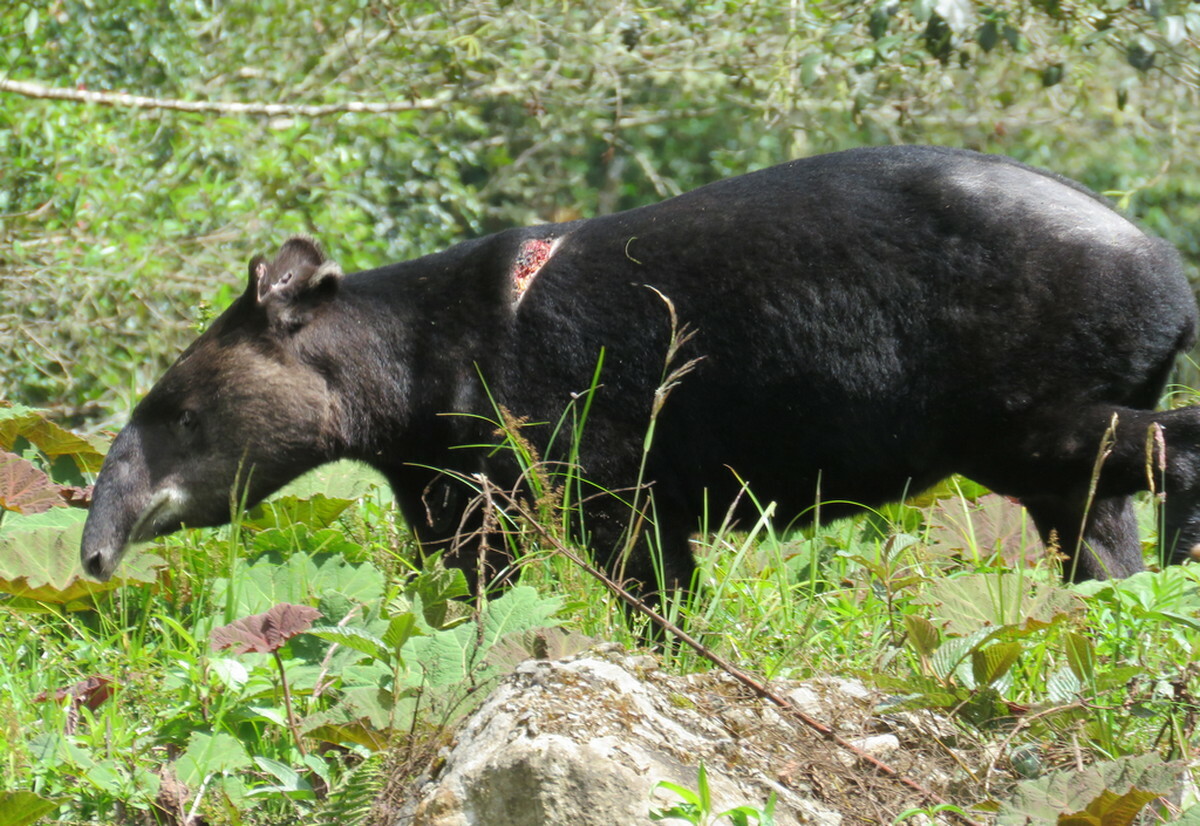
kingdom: Animalia
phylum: Chordata
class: Mammalia
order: Perissodactyla
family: Tapiridae
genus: Tapirus
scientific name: Tapirus pinchaque
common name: Mountain tapir
